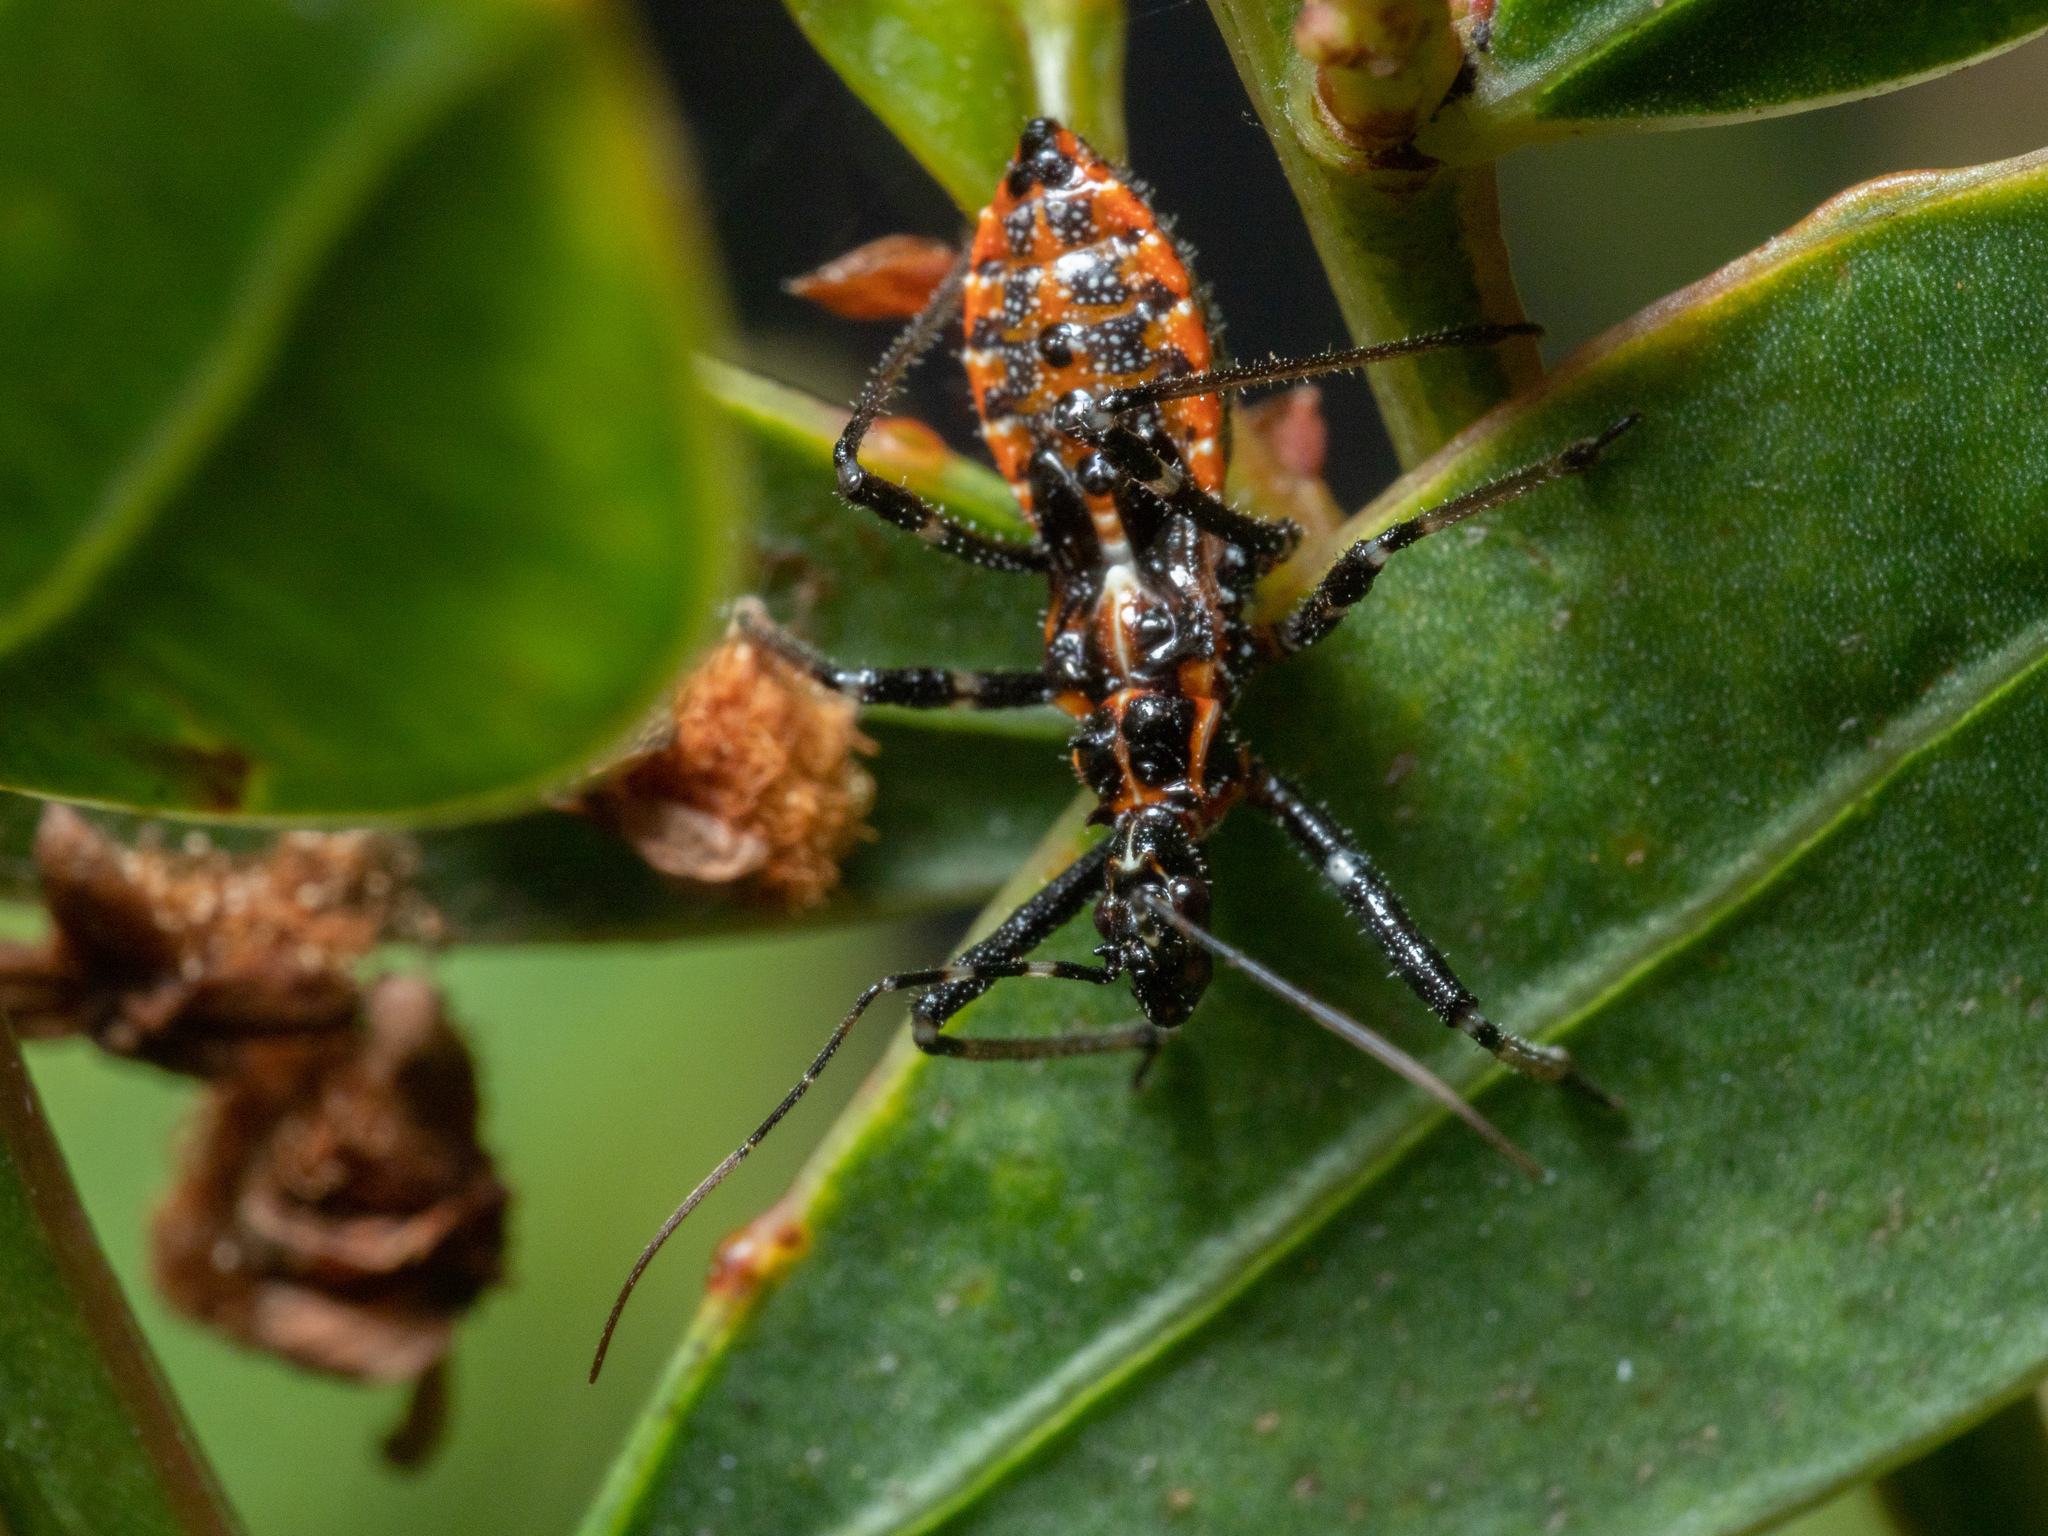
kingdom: Animalia
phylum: Arthropoda
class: Insecta
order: Hemiptera
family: Reduviidae
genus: Gminatus
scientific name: Gminatus australis
